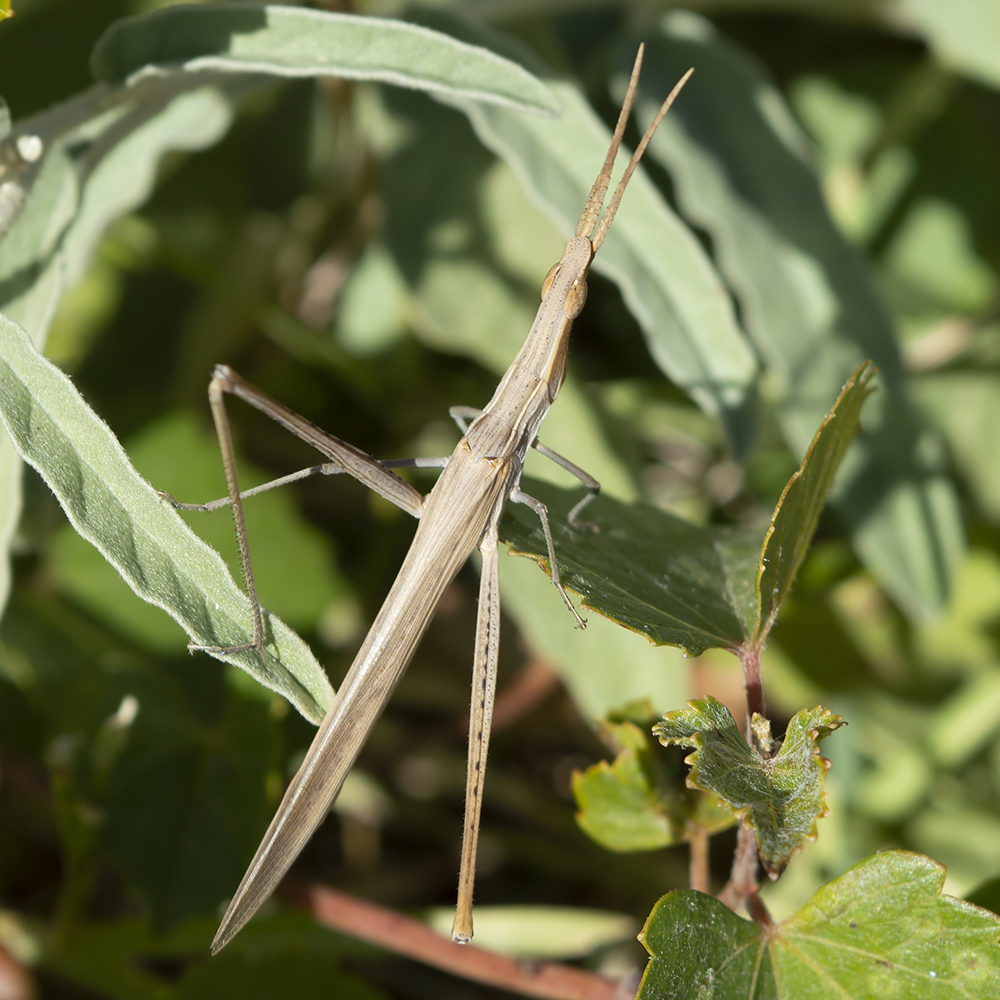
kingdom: Animalia
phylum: Arthropoda
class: Insecta
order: Orthoptera
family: Acrididae
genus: Acrida
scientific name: Acrida ungarica
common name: Common cone-headed grasshopper
